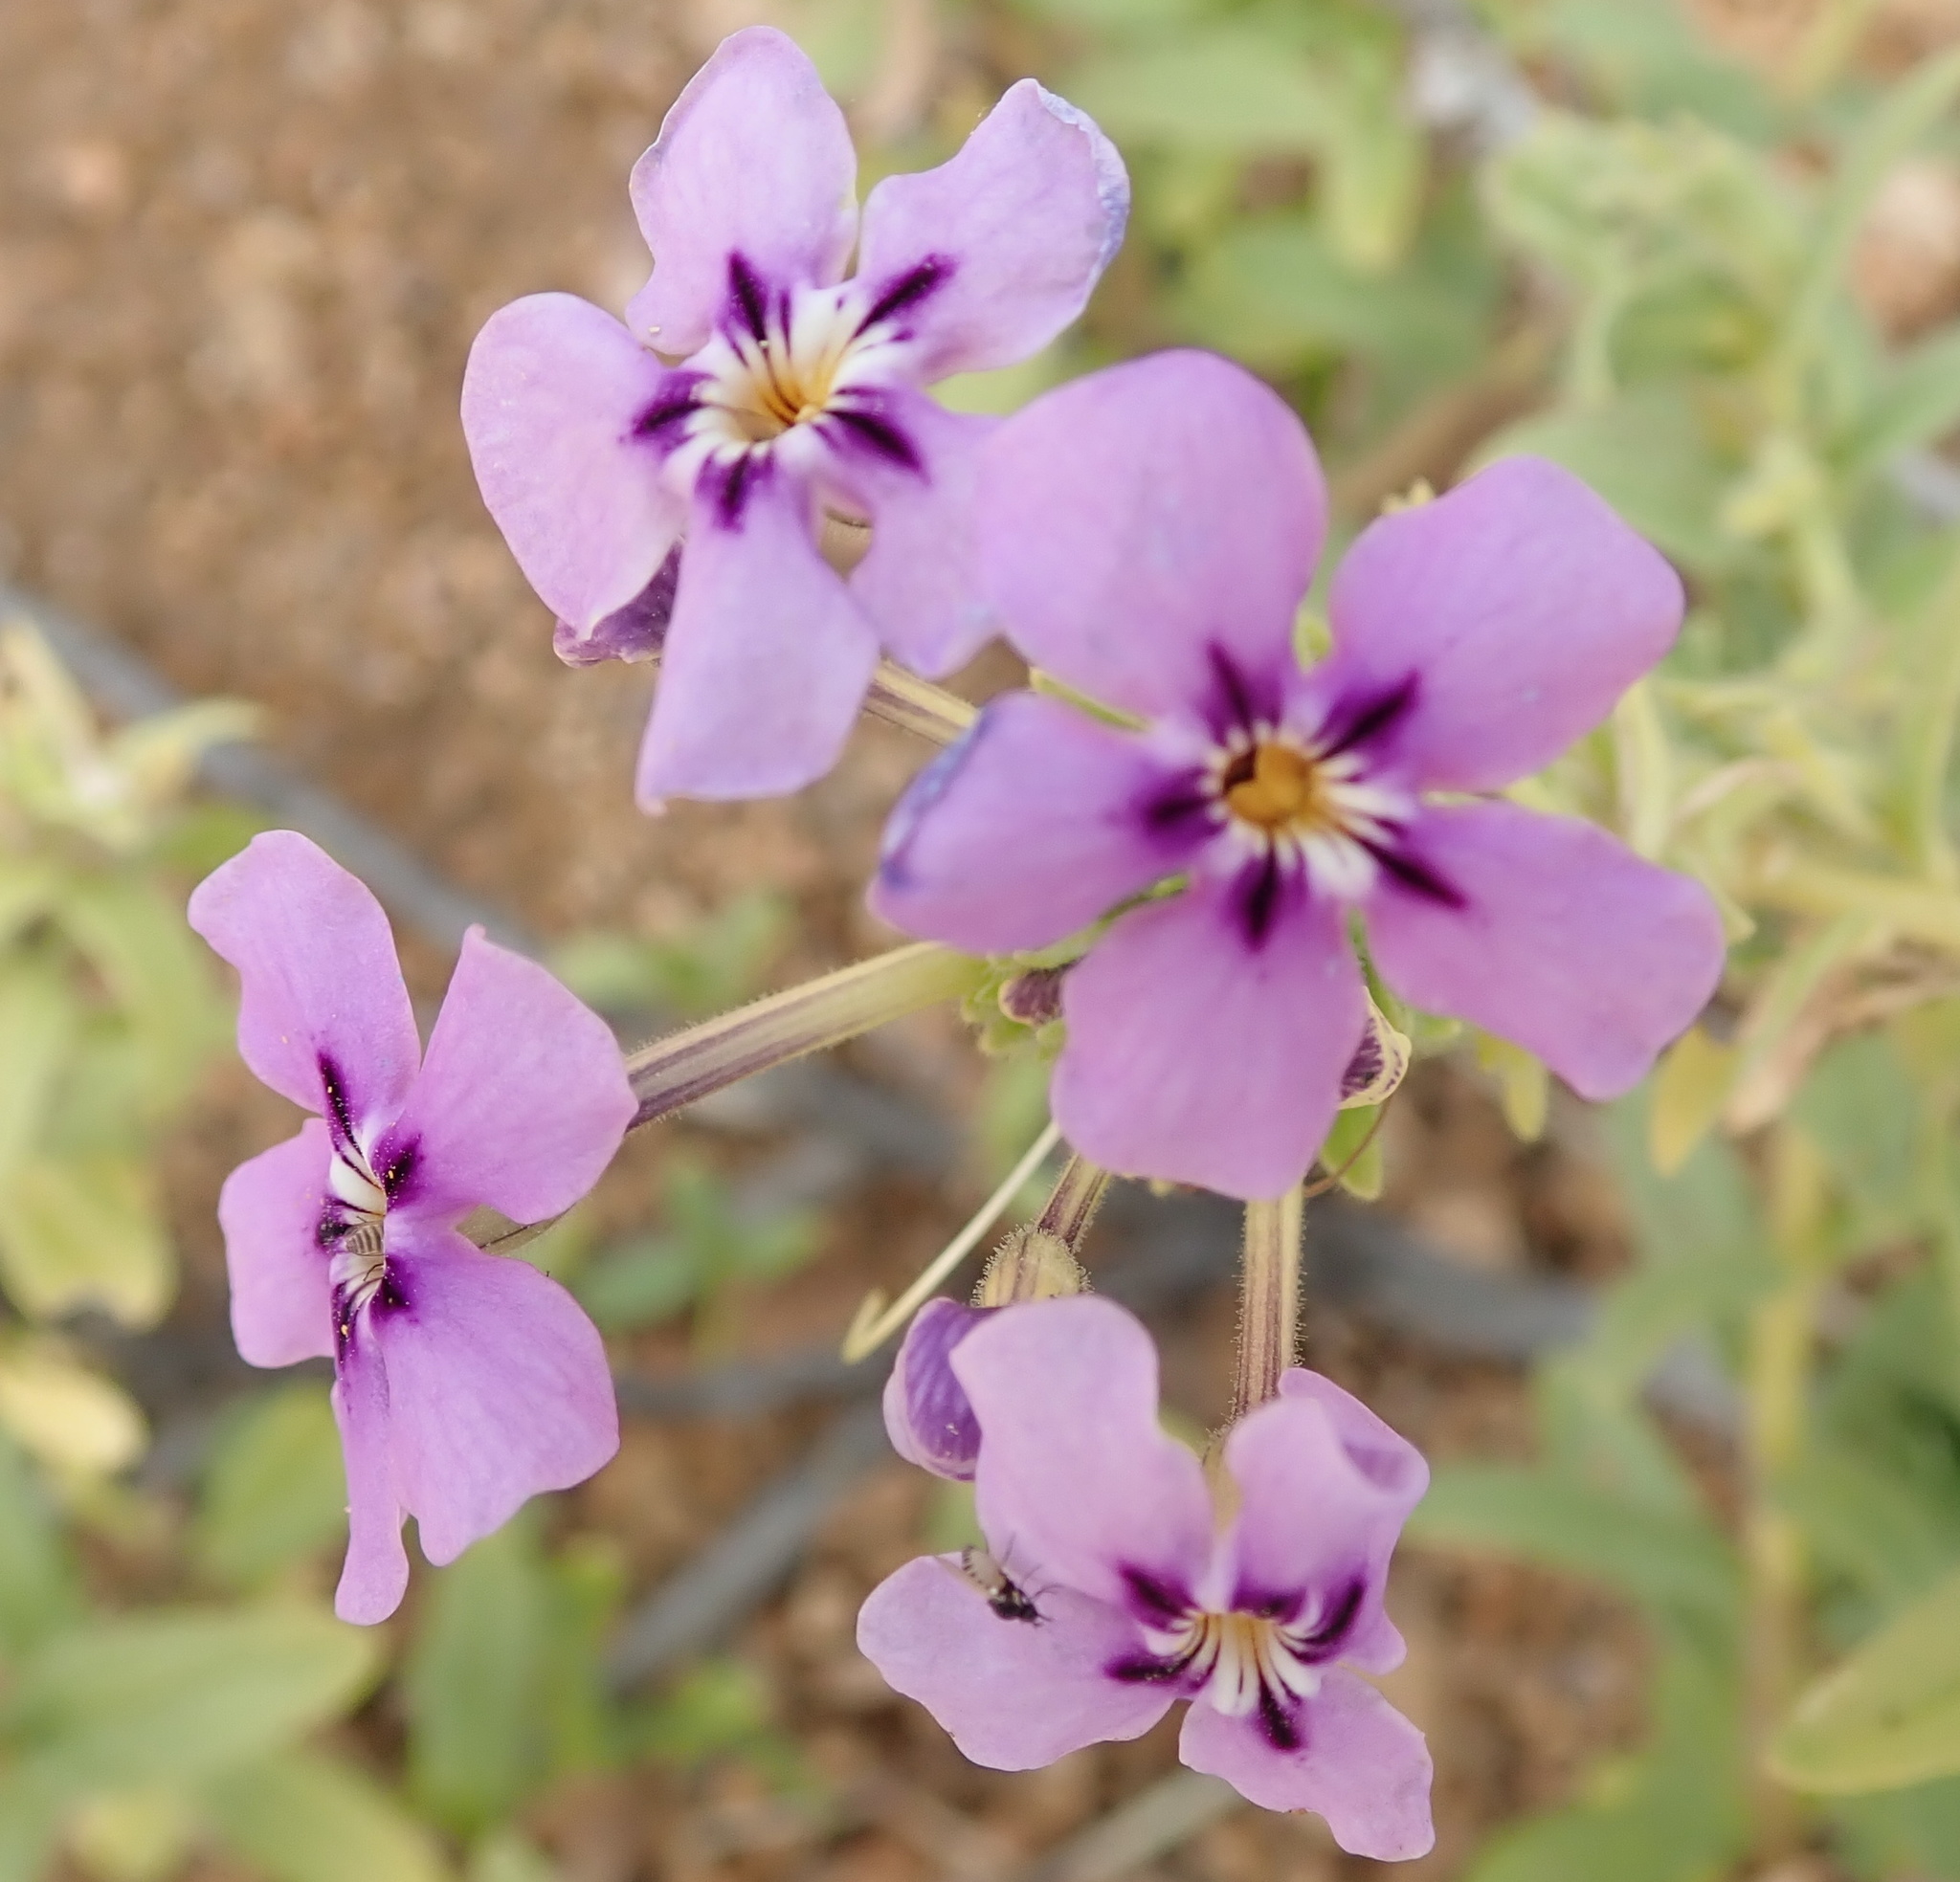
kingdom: Plantae
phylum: Tracheophyta
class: Magnoliopsida
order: Lamiales
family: Scrophulariaceae
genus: Jamesbrittenia
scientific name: Jamesbrittenia fruticosa
